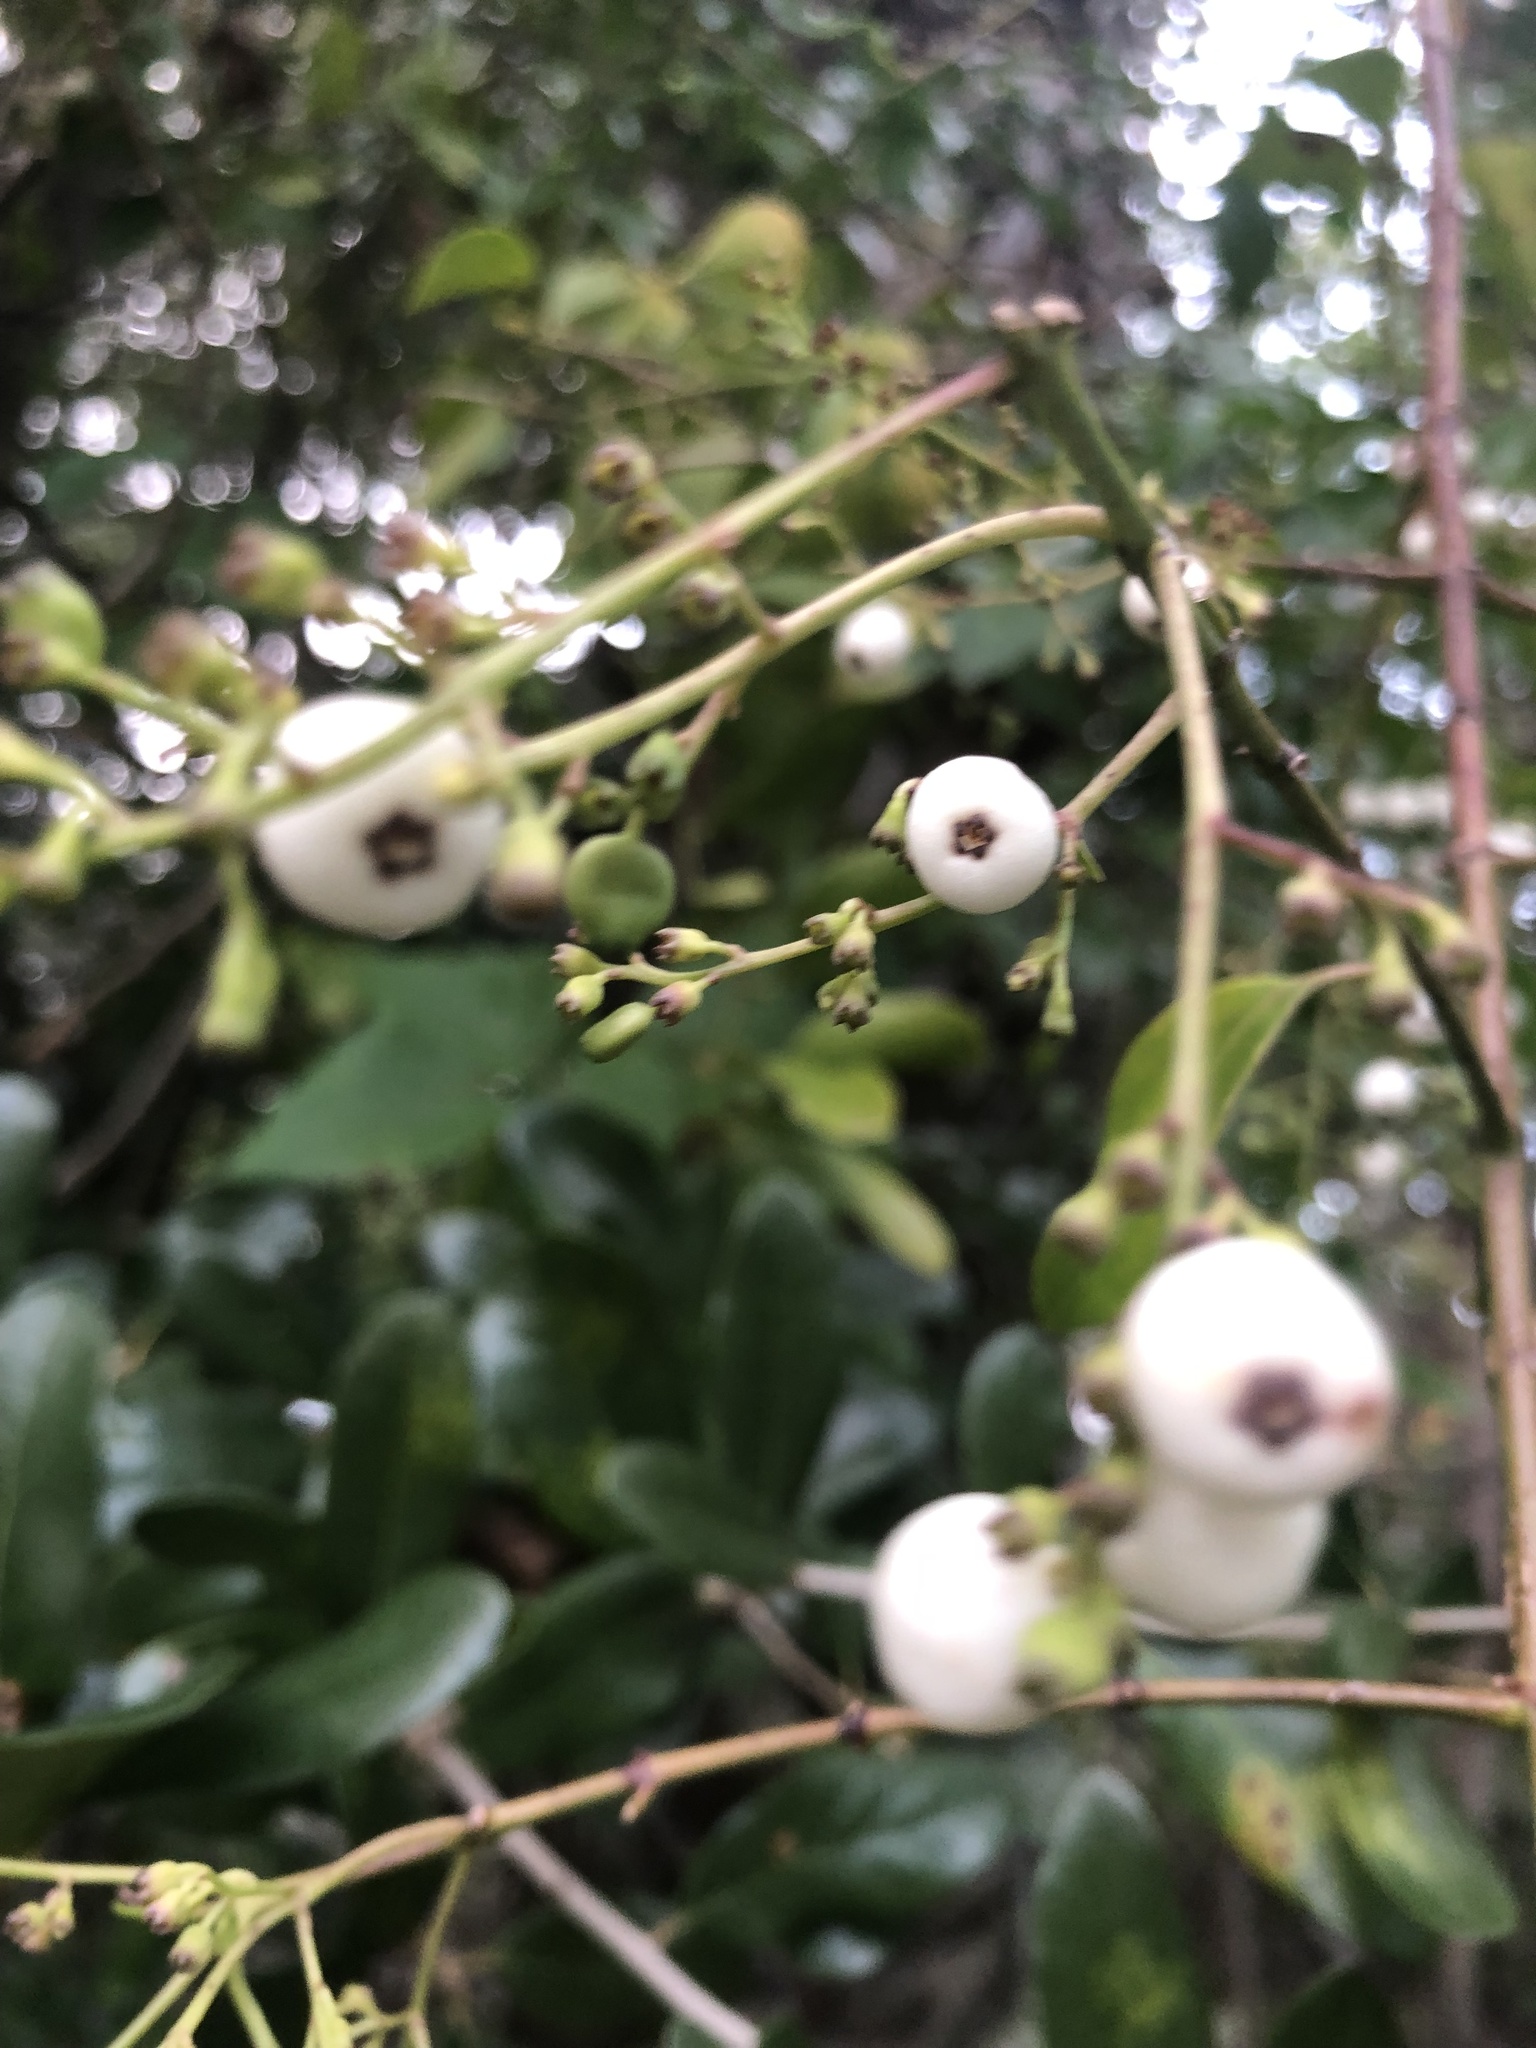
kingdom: Plantae
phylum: Tracheophyta
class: Magnoliopsida
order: Gentianales
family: Rubiaceae
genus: Chiococca
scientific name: Chiococca alba
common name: Snowberry
